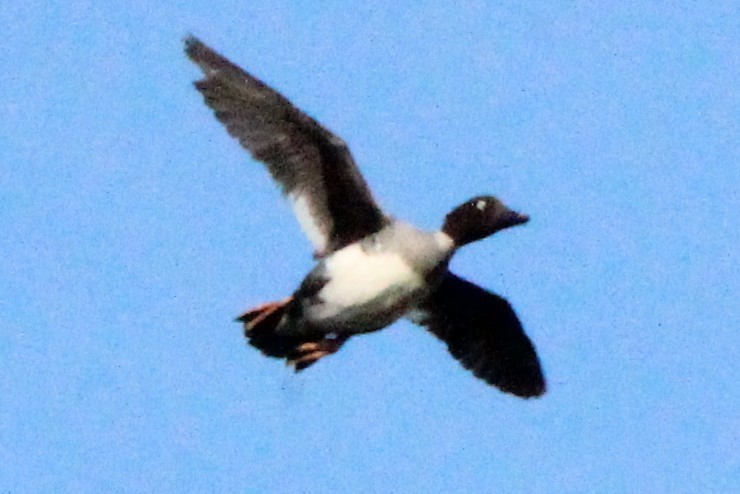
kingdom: Animalia
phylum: Chordata
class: Aves
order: Anseriformes
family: Anatidae
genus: Bucephala
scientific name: Bucephala clangula
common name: Common goldeneye
